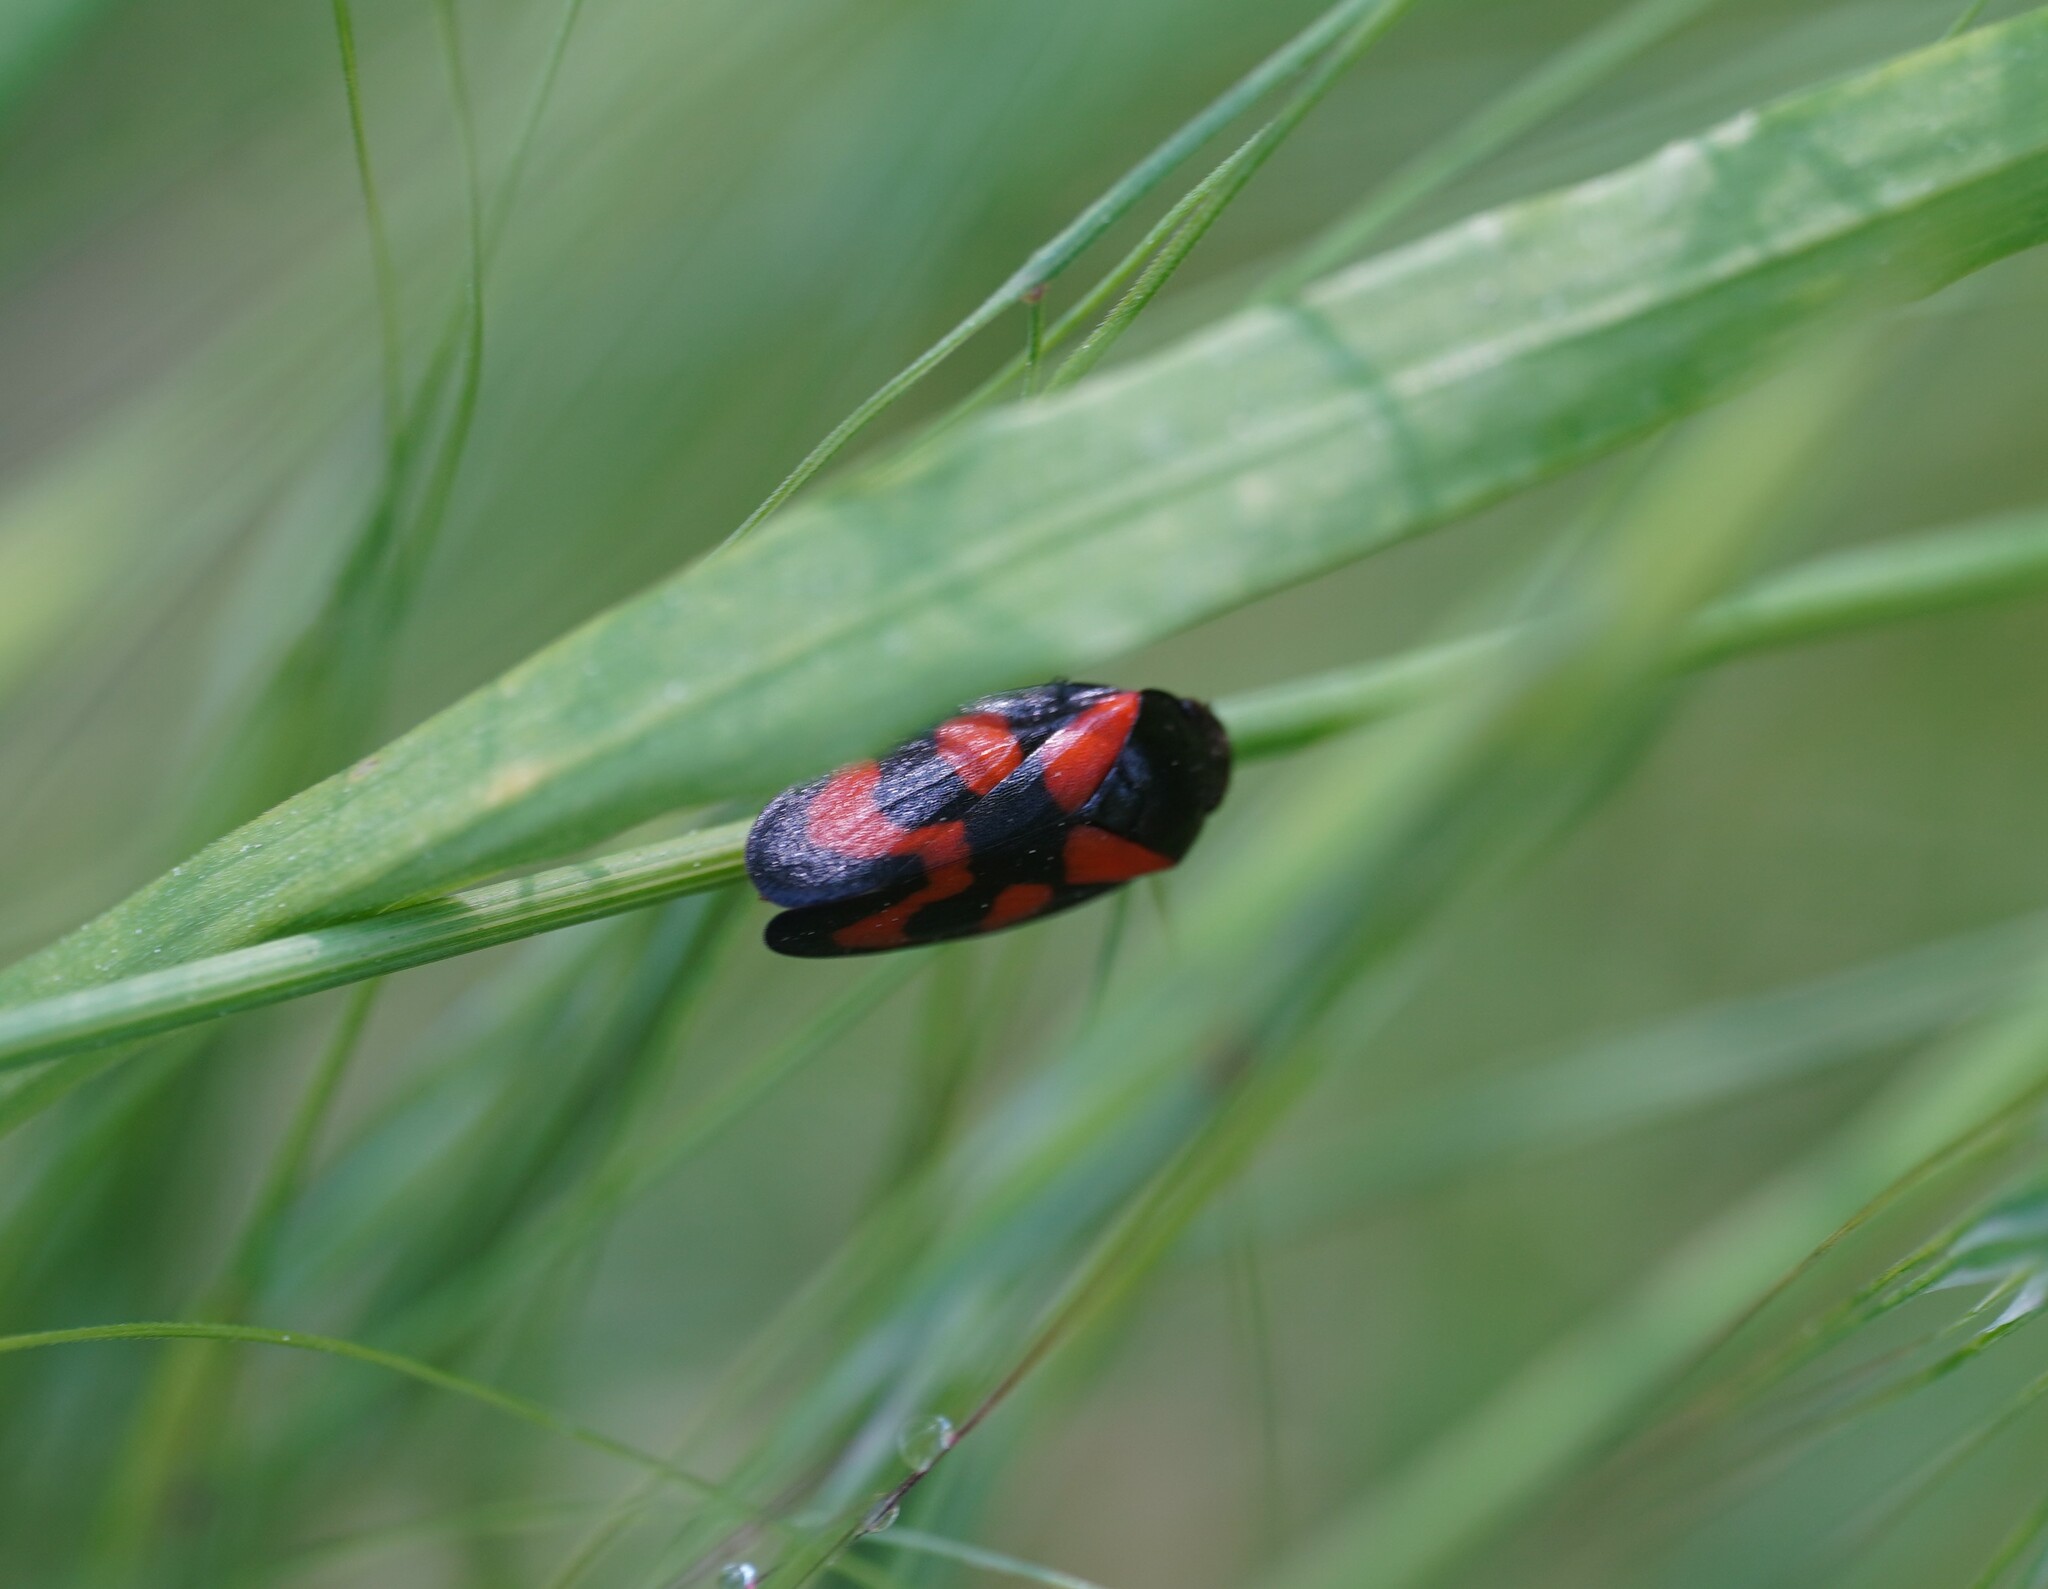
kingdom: Animalia
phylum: Arthropoda
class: Insecta
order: Hemiptera
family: Cercopidae
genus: Cercopis
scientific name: Cercopis vulnerata
